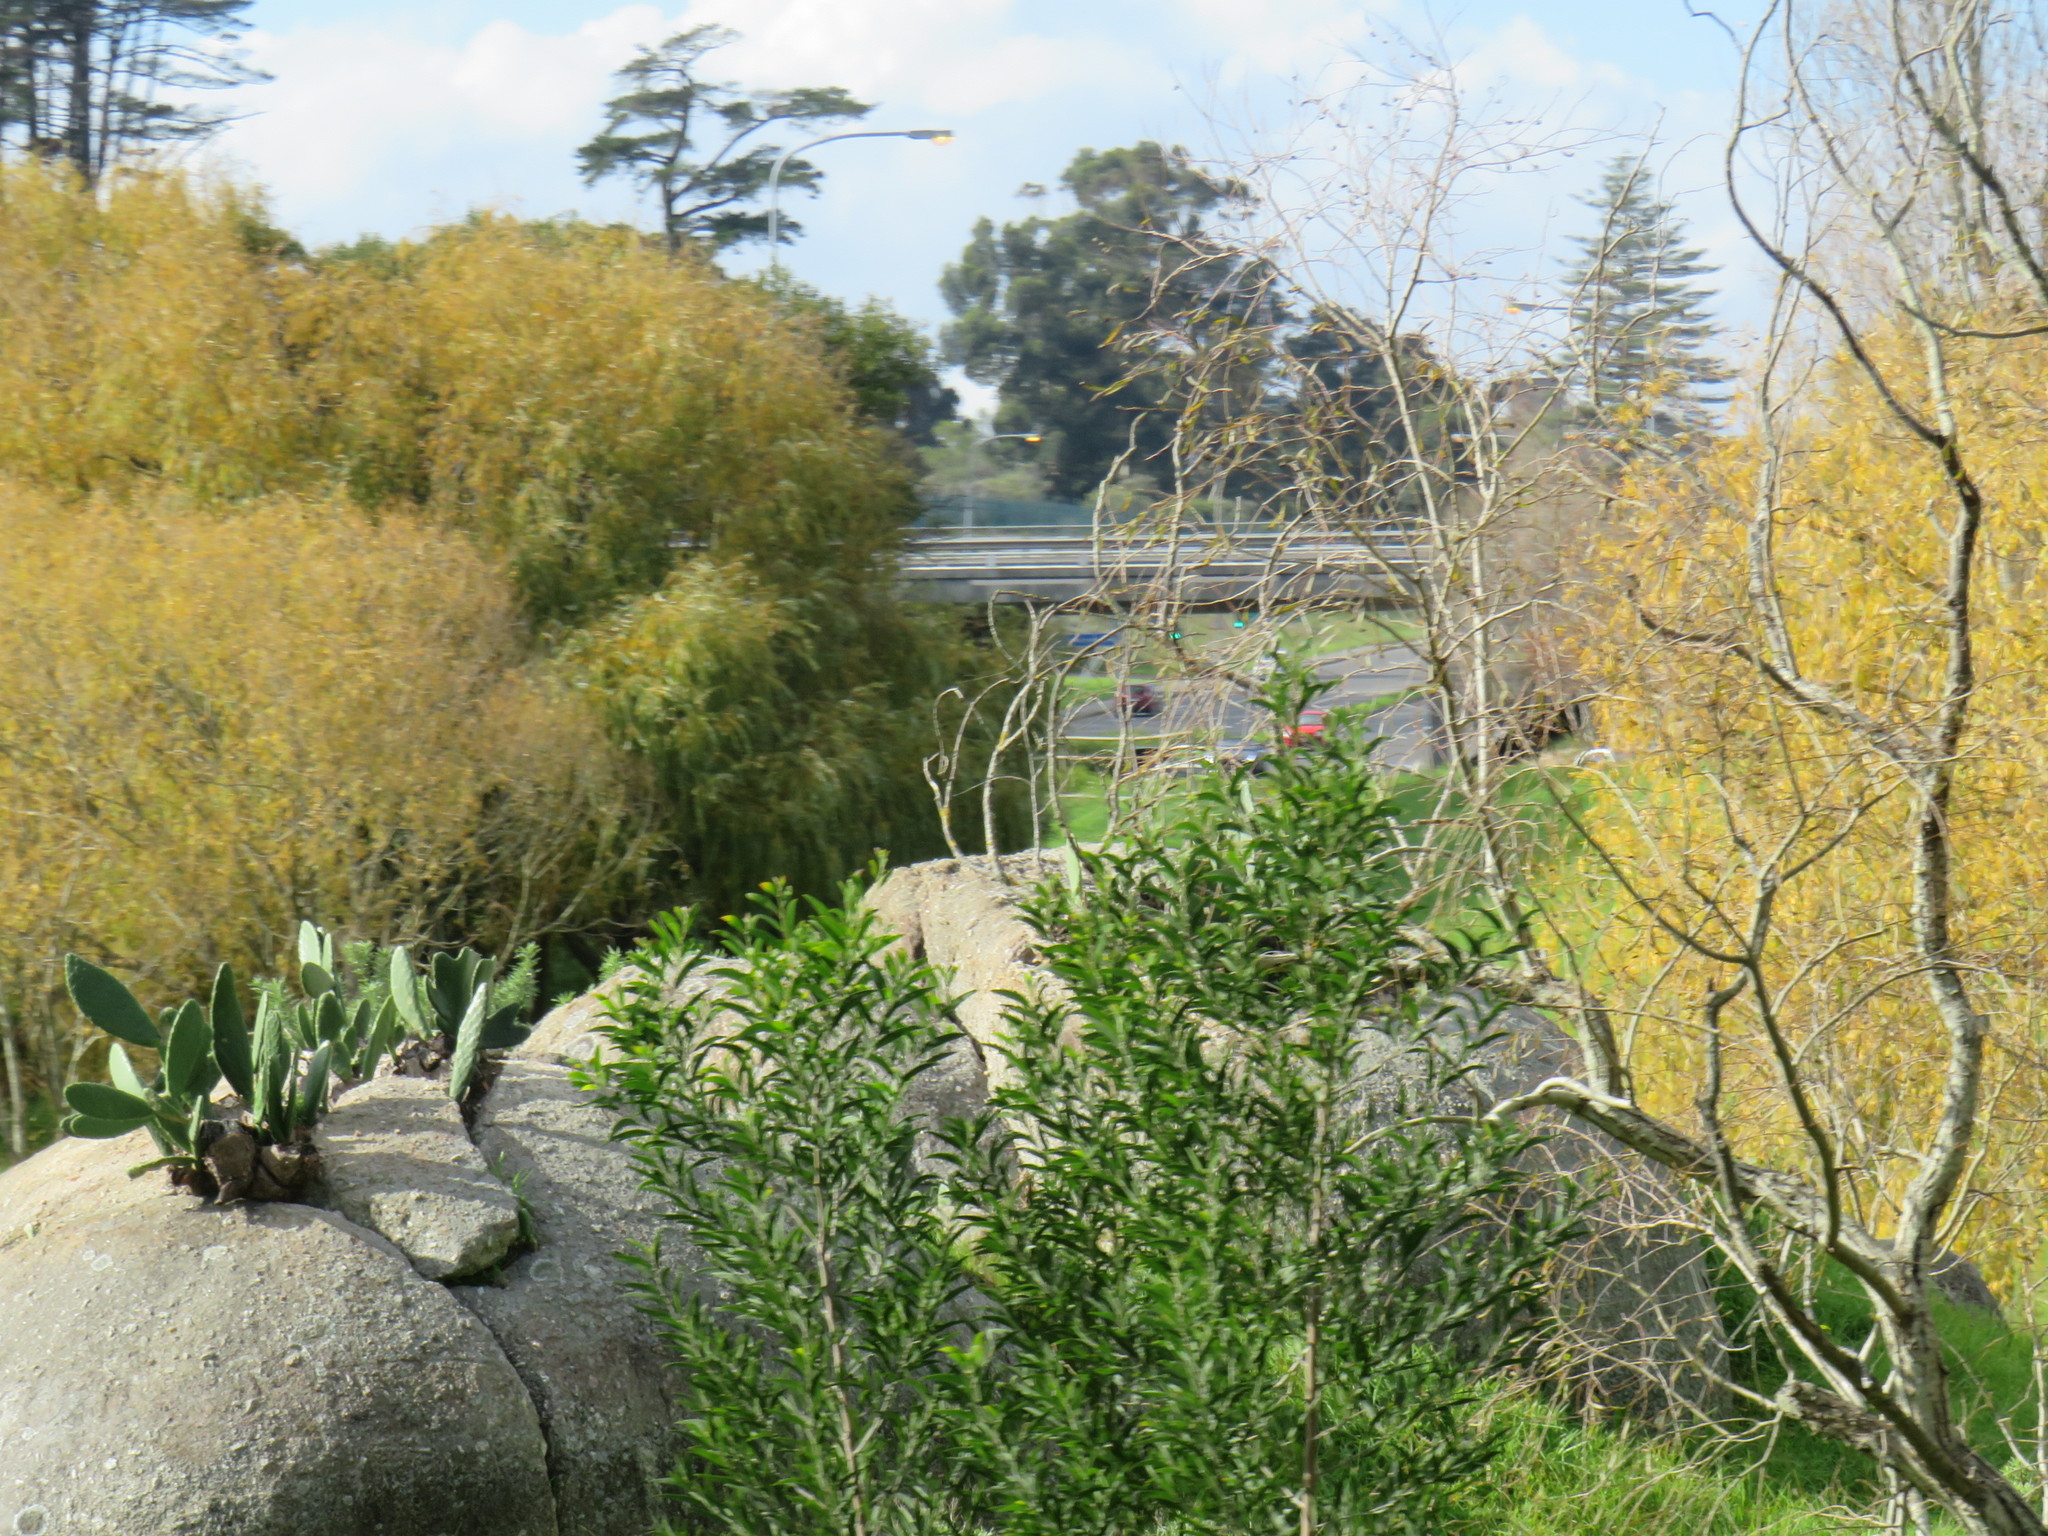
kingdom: Plantae
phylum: Tracheophyta
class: Magnoliopsida
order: Fabales
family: Fabaceae
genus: Acacia
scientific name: Acacia melanoxylon
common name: Blackwood
